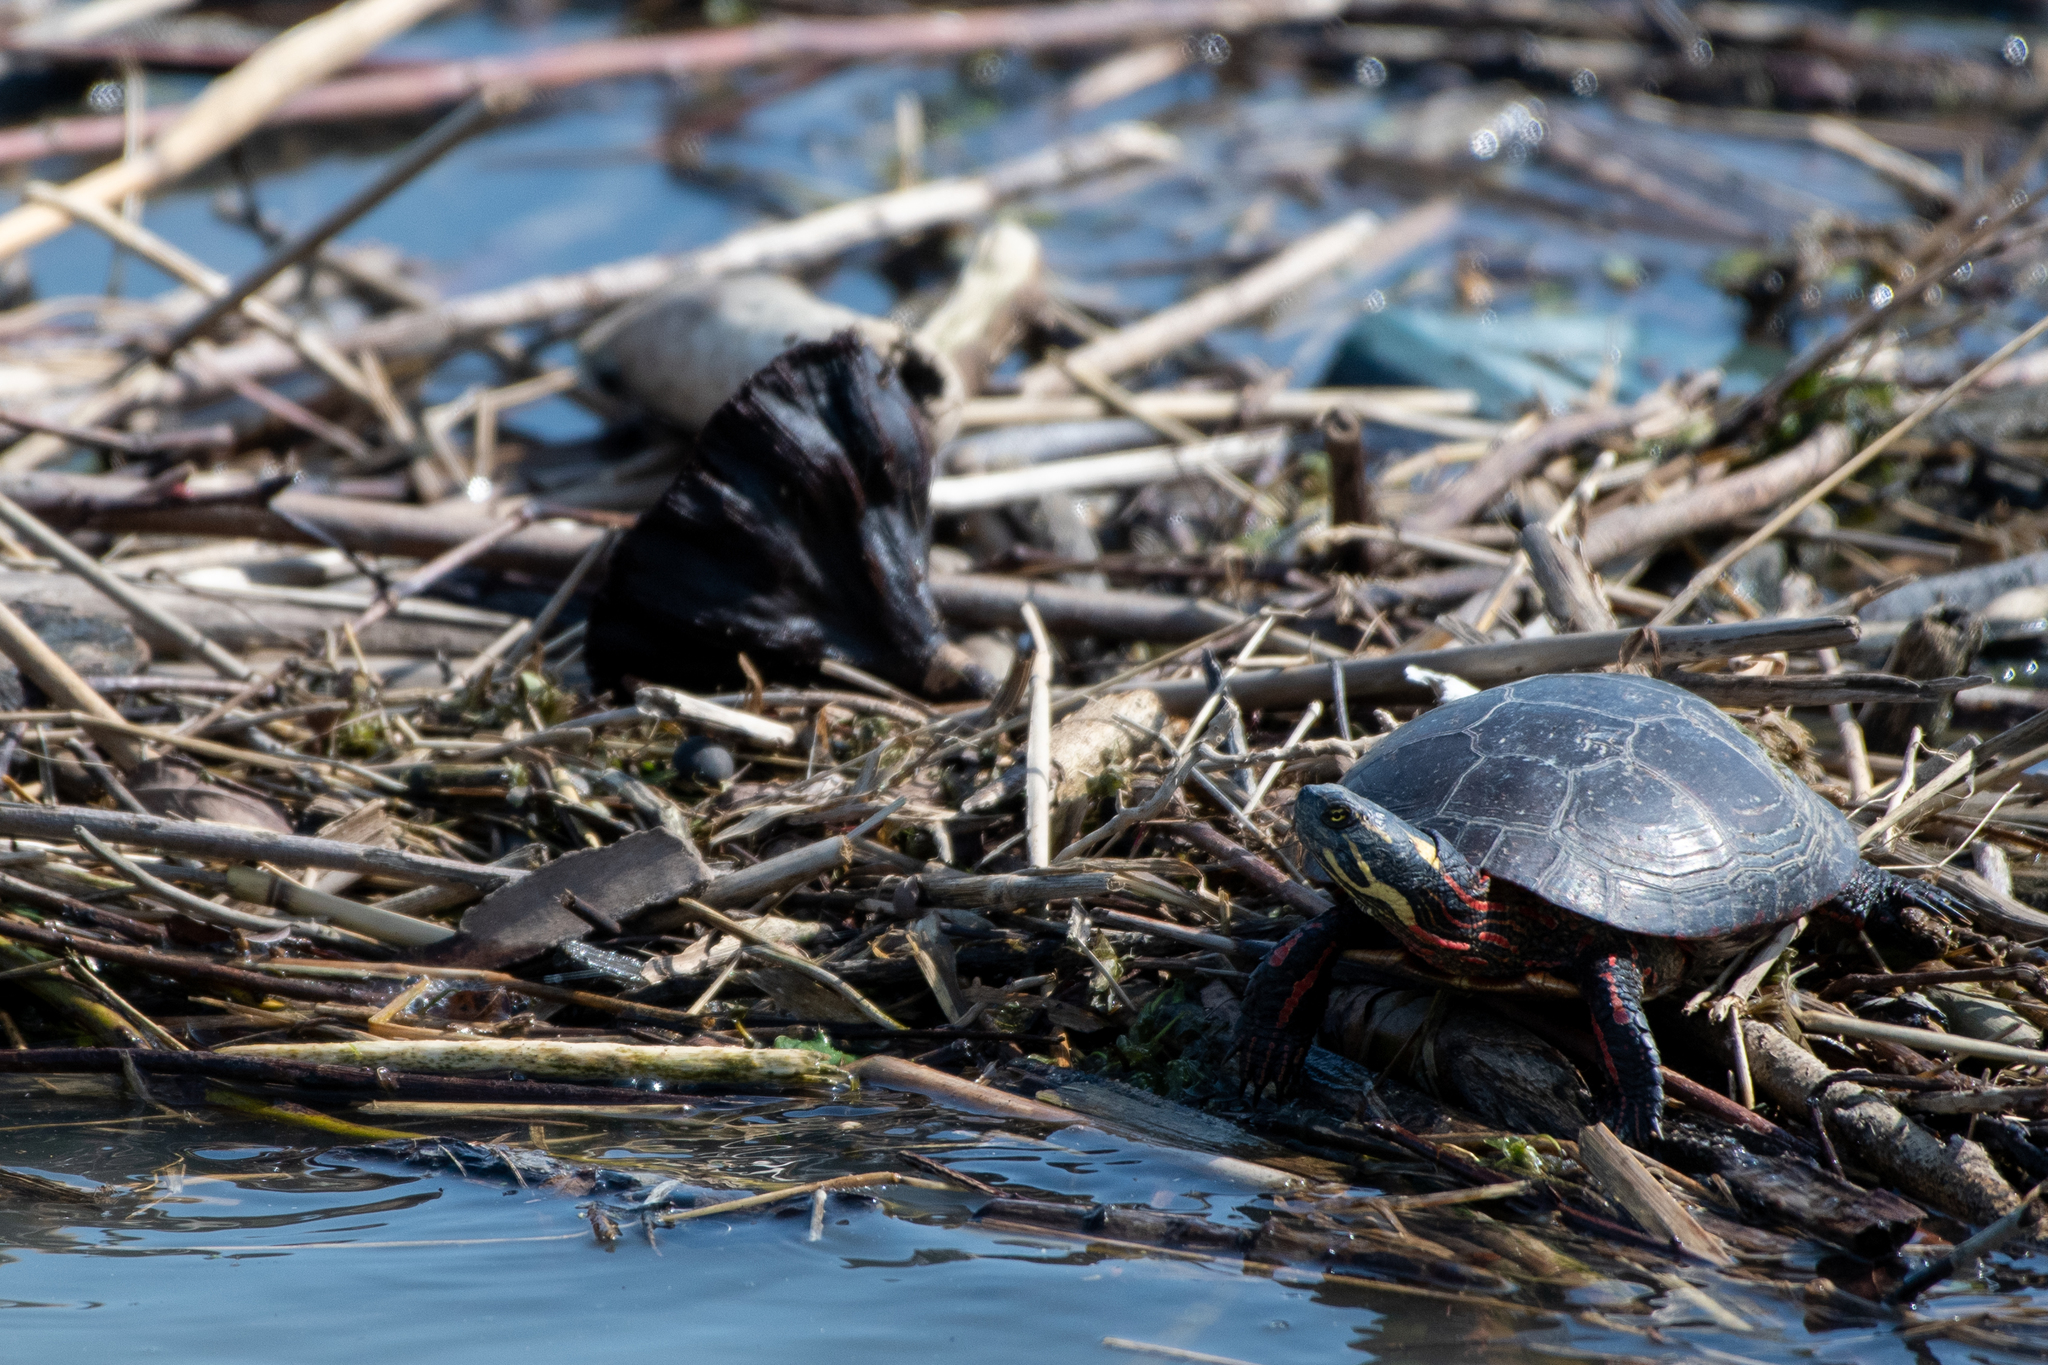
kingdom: Animalia
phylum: Chordata
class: Testudines
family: Emydidae
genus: Chrysemys
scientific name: Chrysemys picta
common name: Painted turtle
